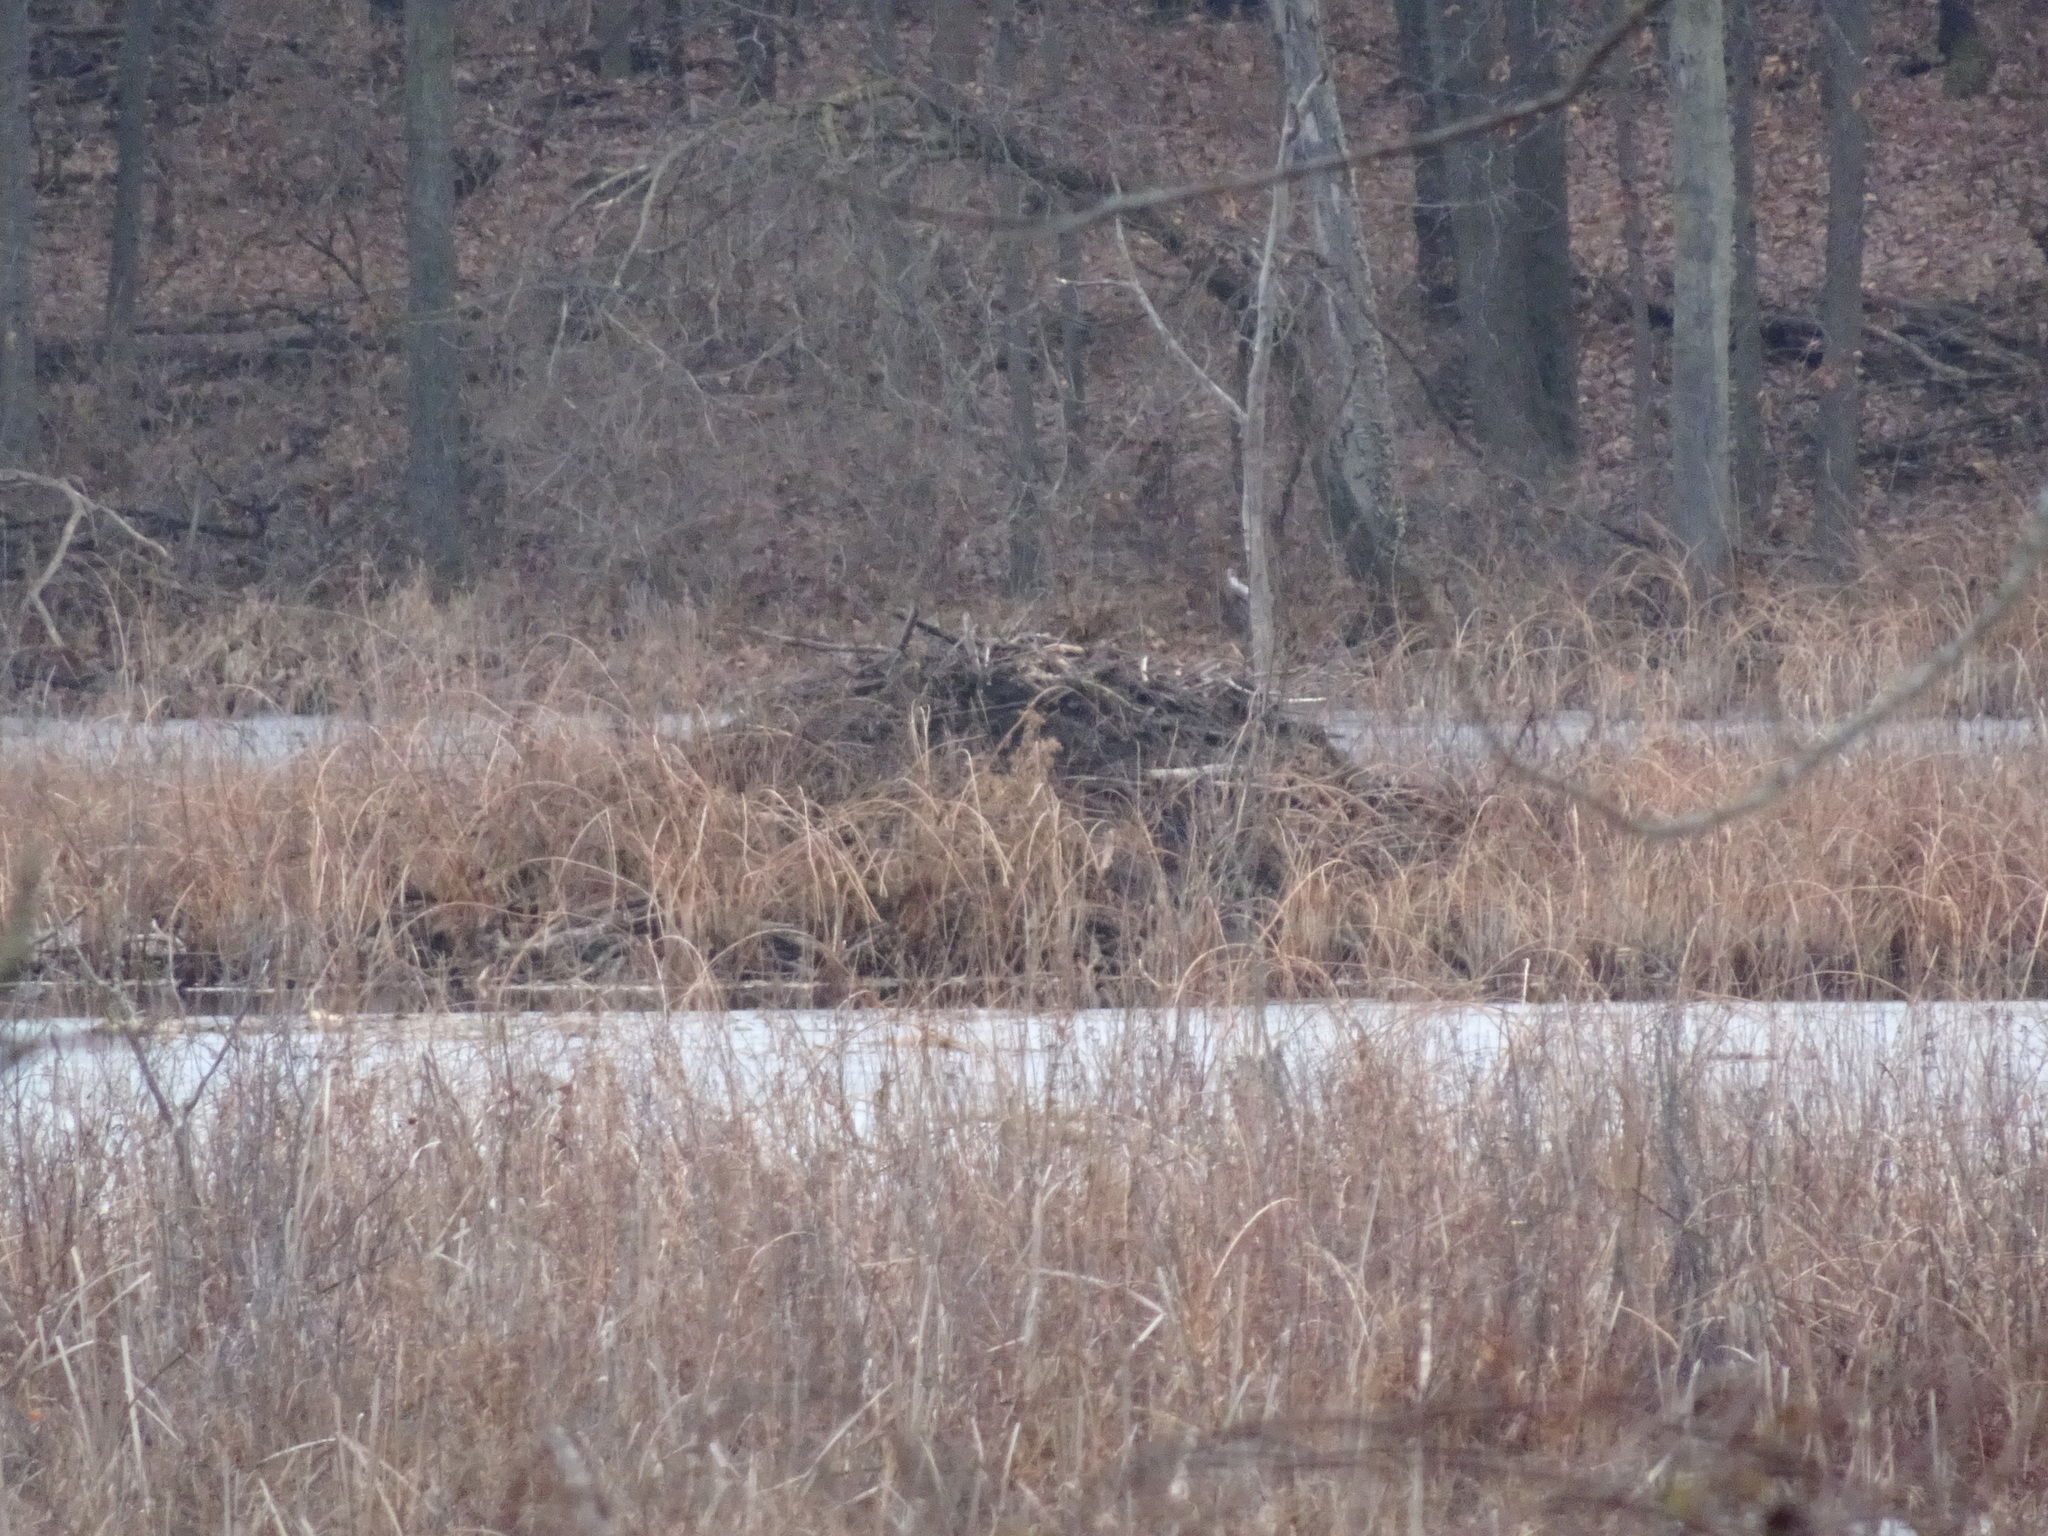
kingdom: Animalia
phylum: Chordata
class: Mammalia
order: Rodentia
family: Castoridae
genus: Castor
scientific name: Castor canadensis
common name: American beaver
